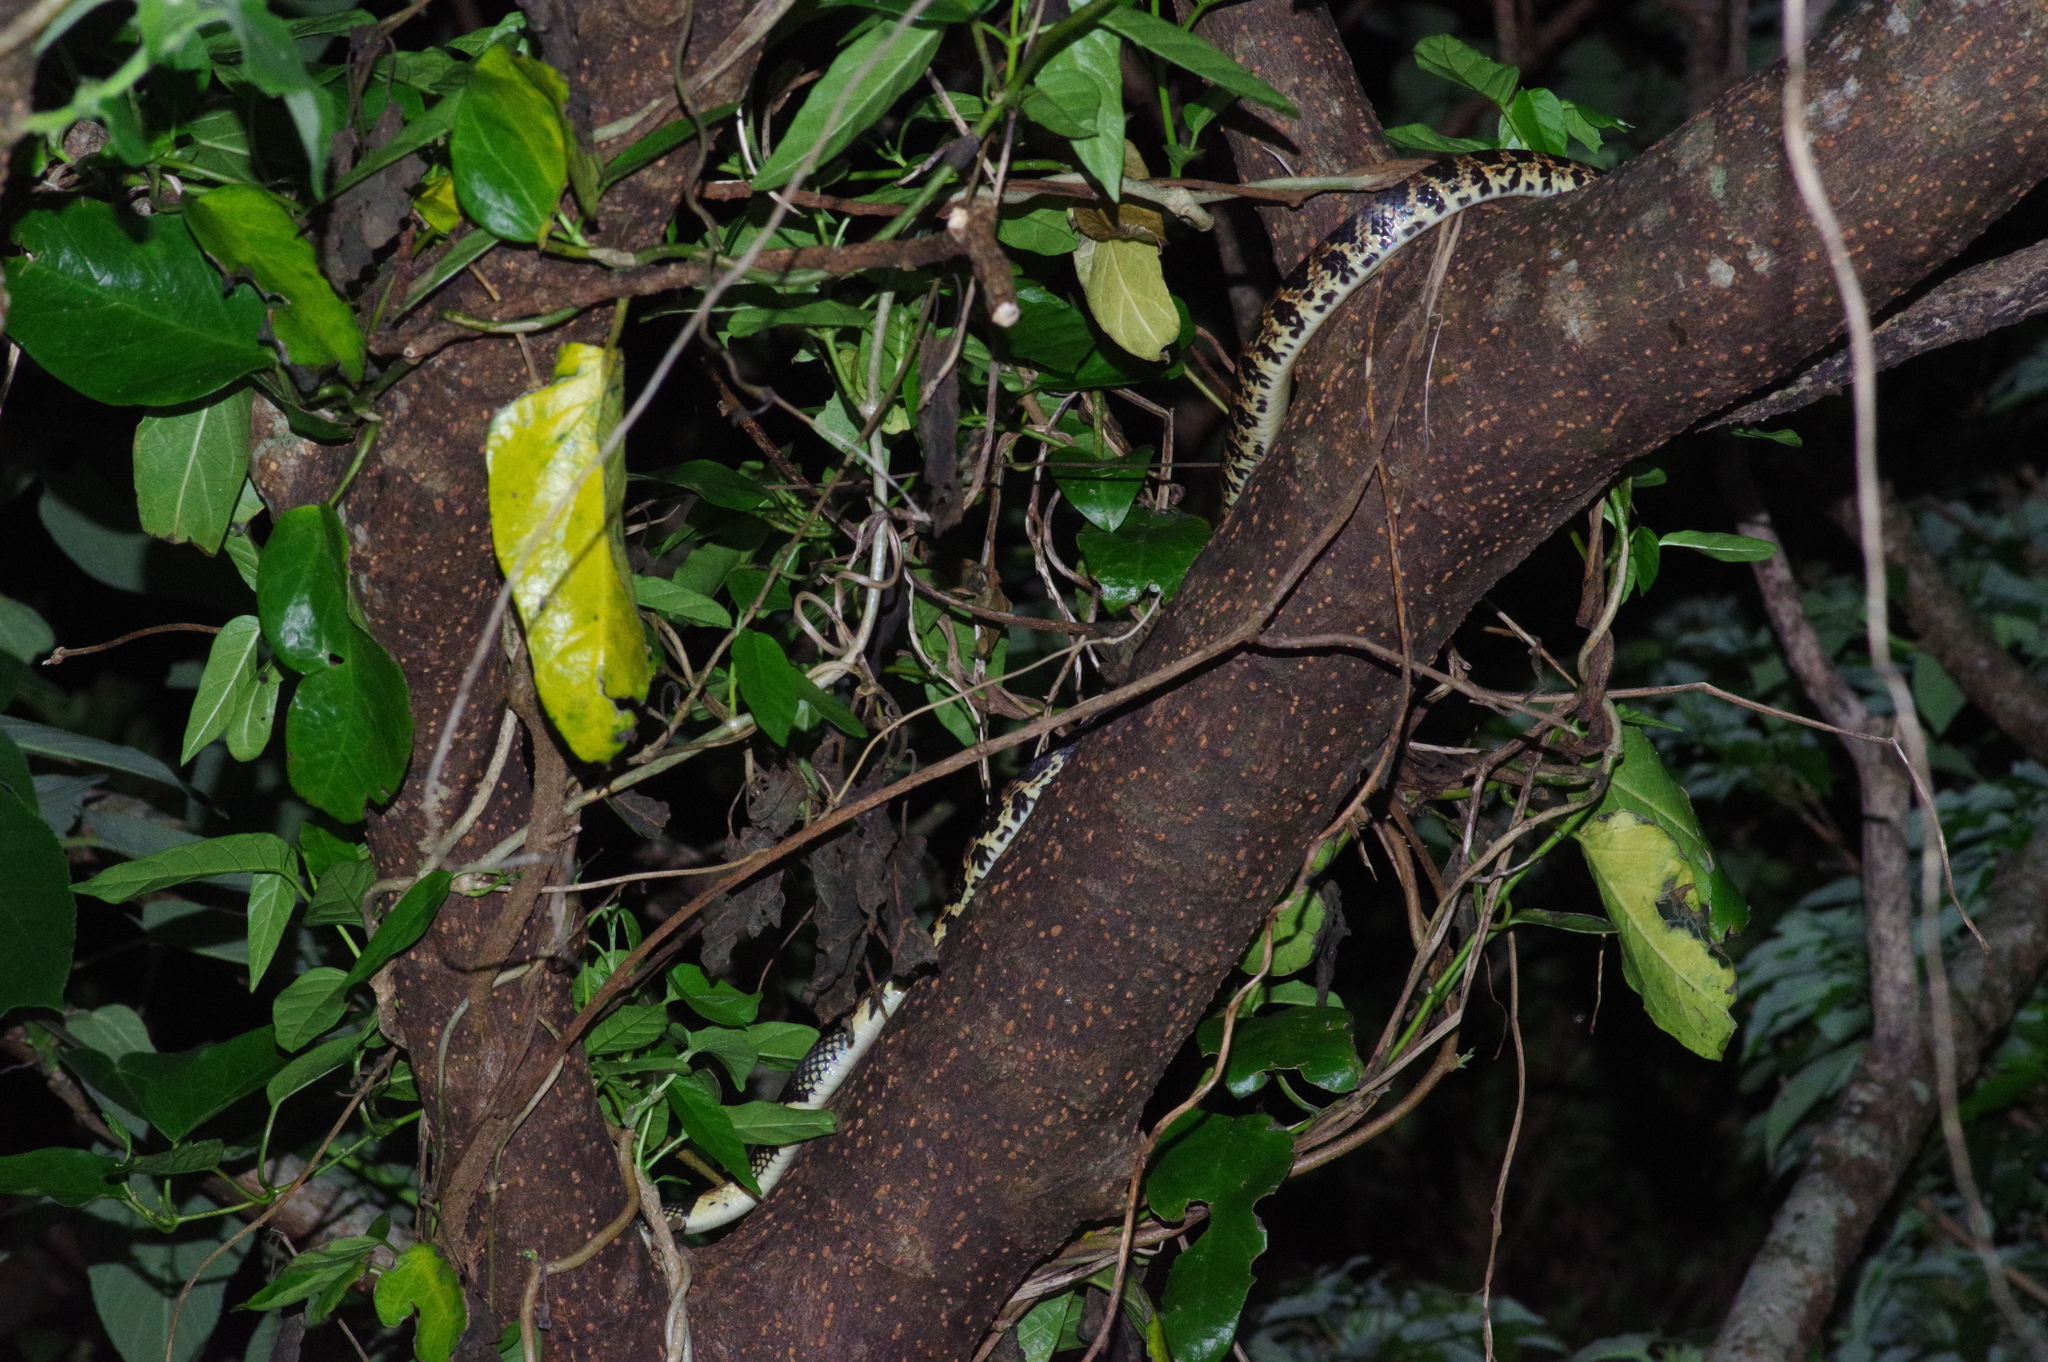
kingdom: Animalia
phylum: Chordata
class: Squamata
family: Colubridae
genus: Lycodon
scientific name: Lycodon semicarinatus
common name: Loo-choo big-tooth snake
